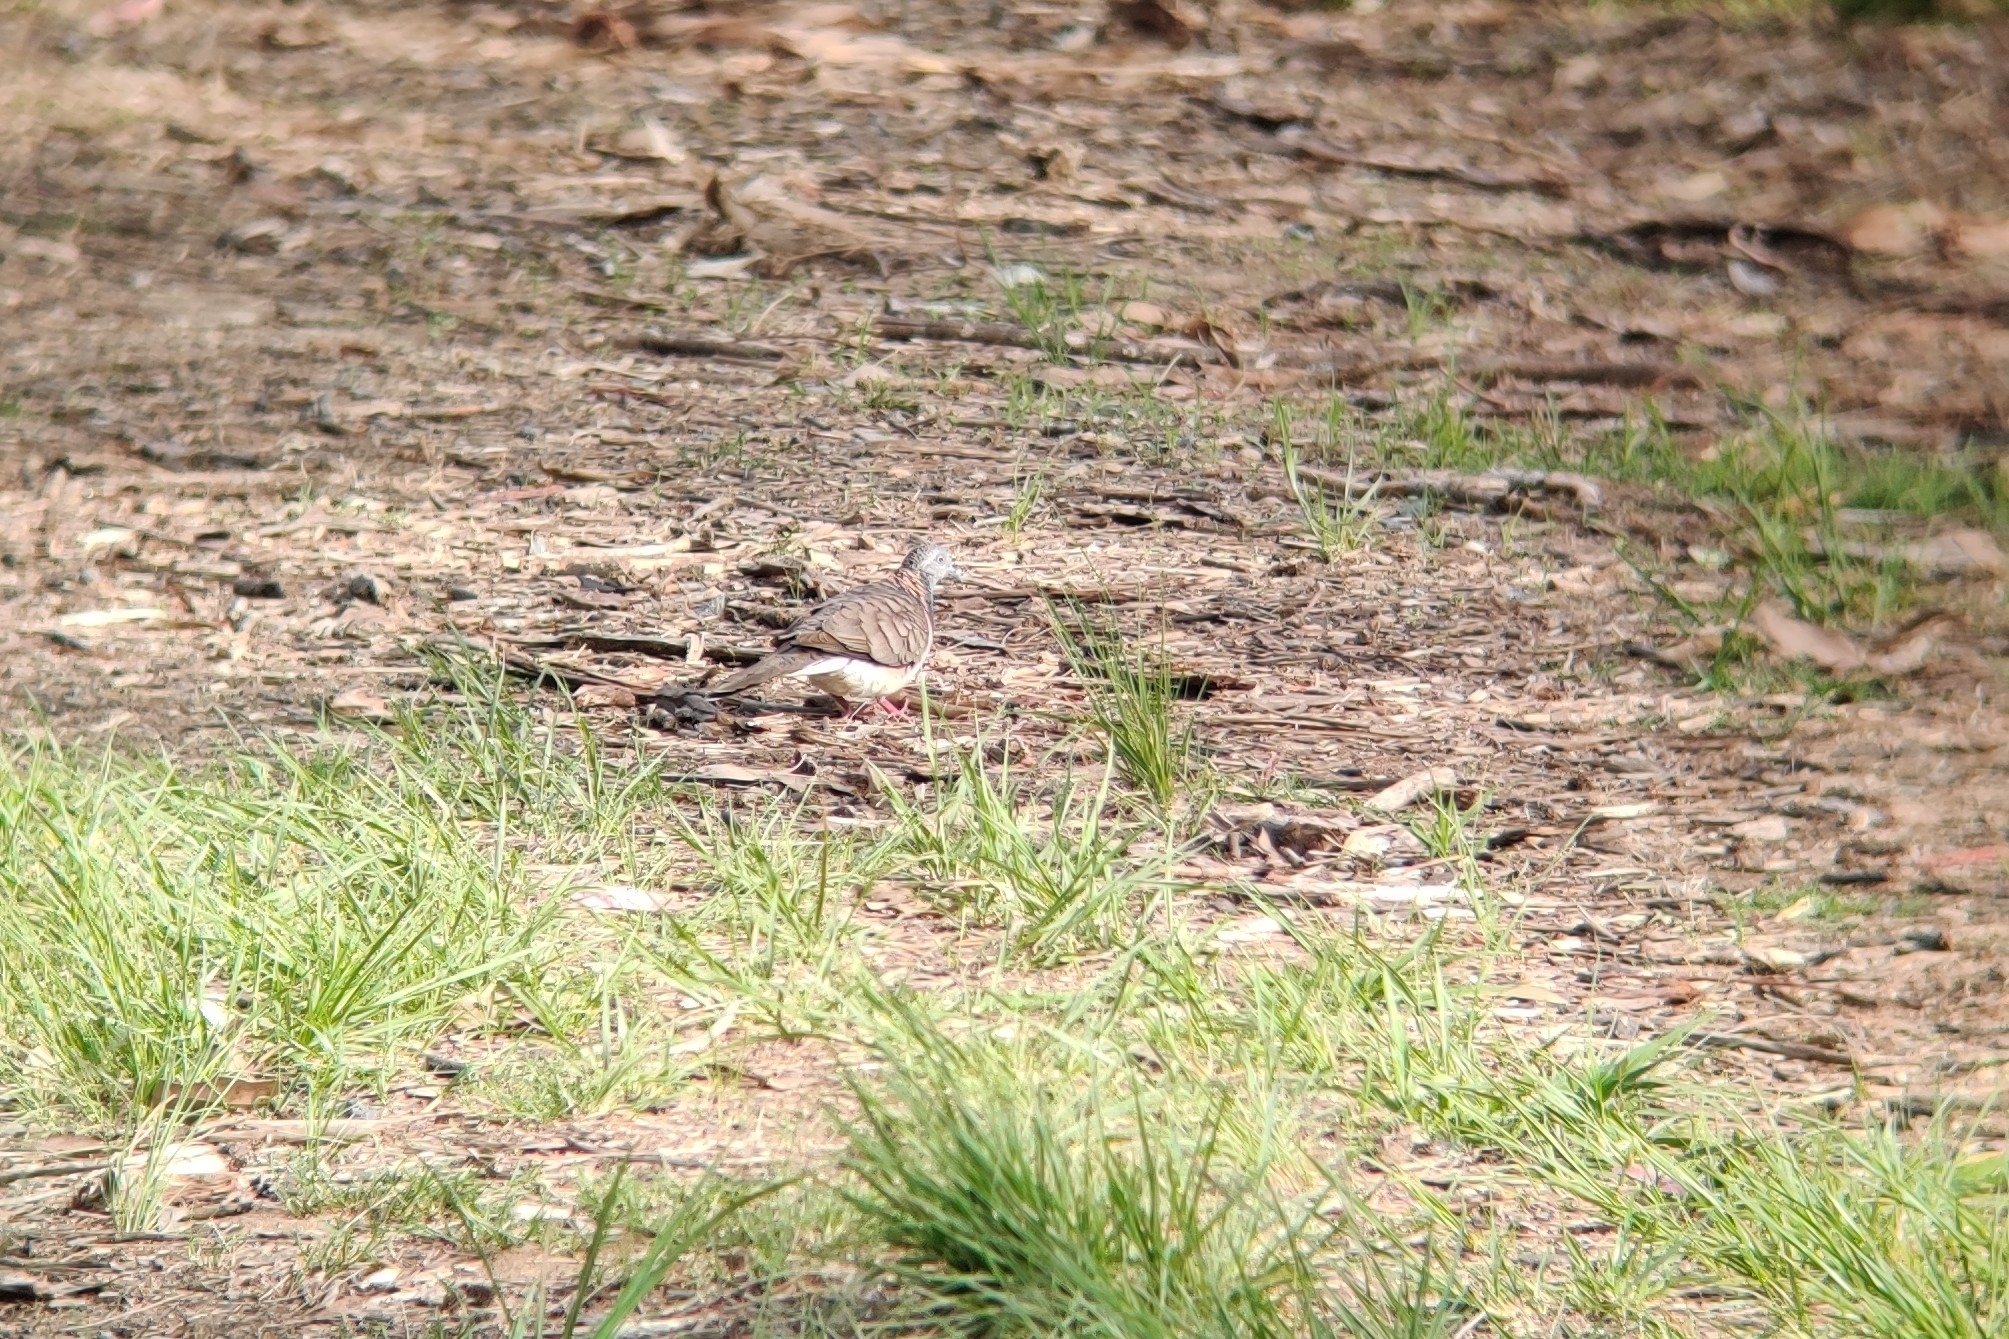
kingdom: Animalia
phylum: Chordata
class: Aves
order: Columbiformes
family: Columbidae
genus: Geopelia
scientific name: Geopelia humeralis
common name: Bar-shouldered dove
